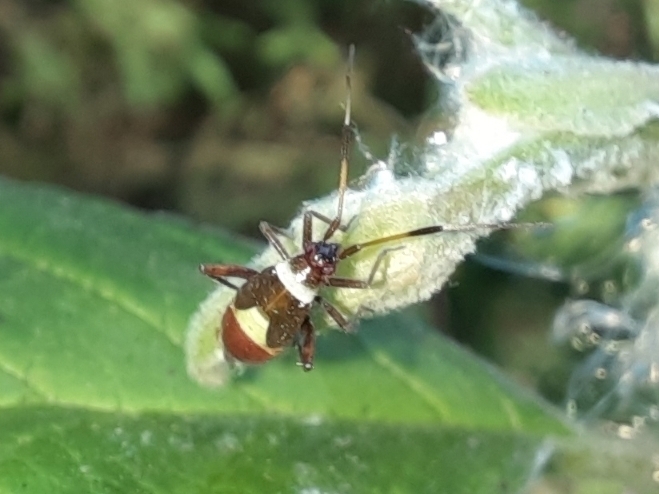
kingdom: Animalia
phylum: Arthropoda
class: Insecta
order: Hemiptera
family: Miridae
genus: Closterotomus
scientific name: Closterotomus biclavatus
